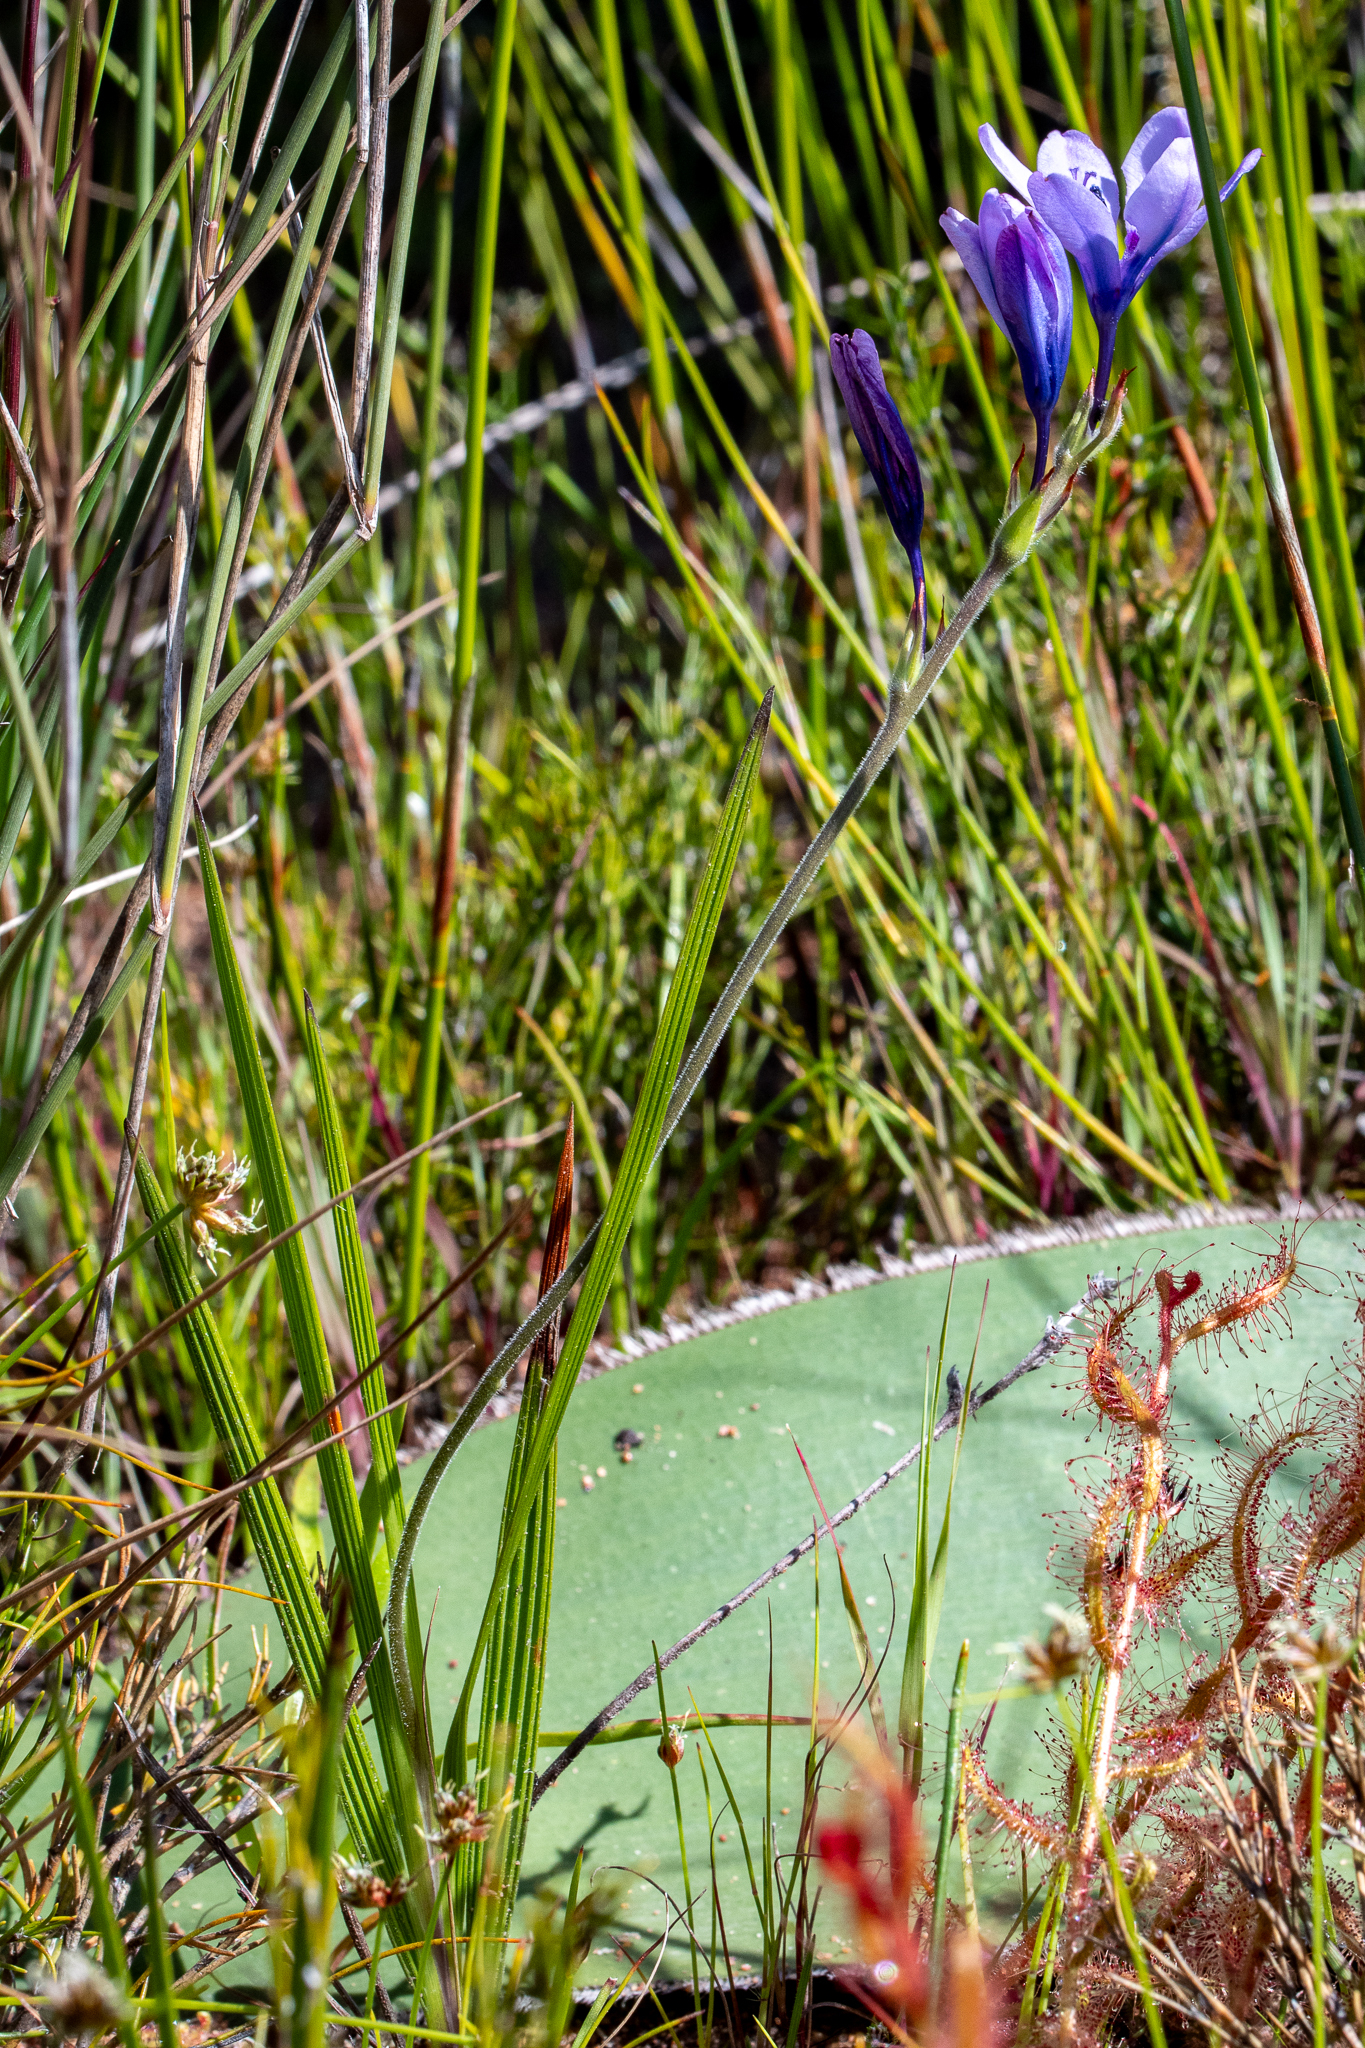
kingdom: Plantae
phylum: Tracheophyta
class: Liliopsida
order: Asparagales
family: Iridaceae
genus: Babiana
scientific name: Babiana nervosa
